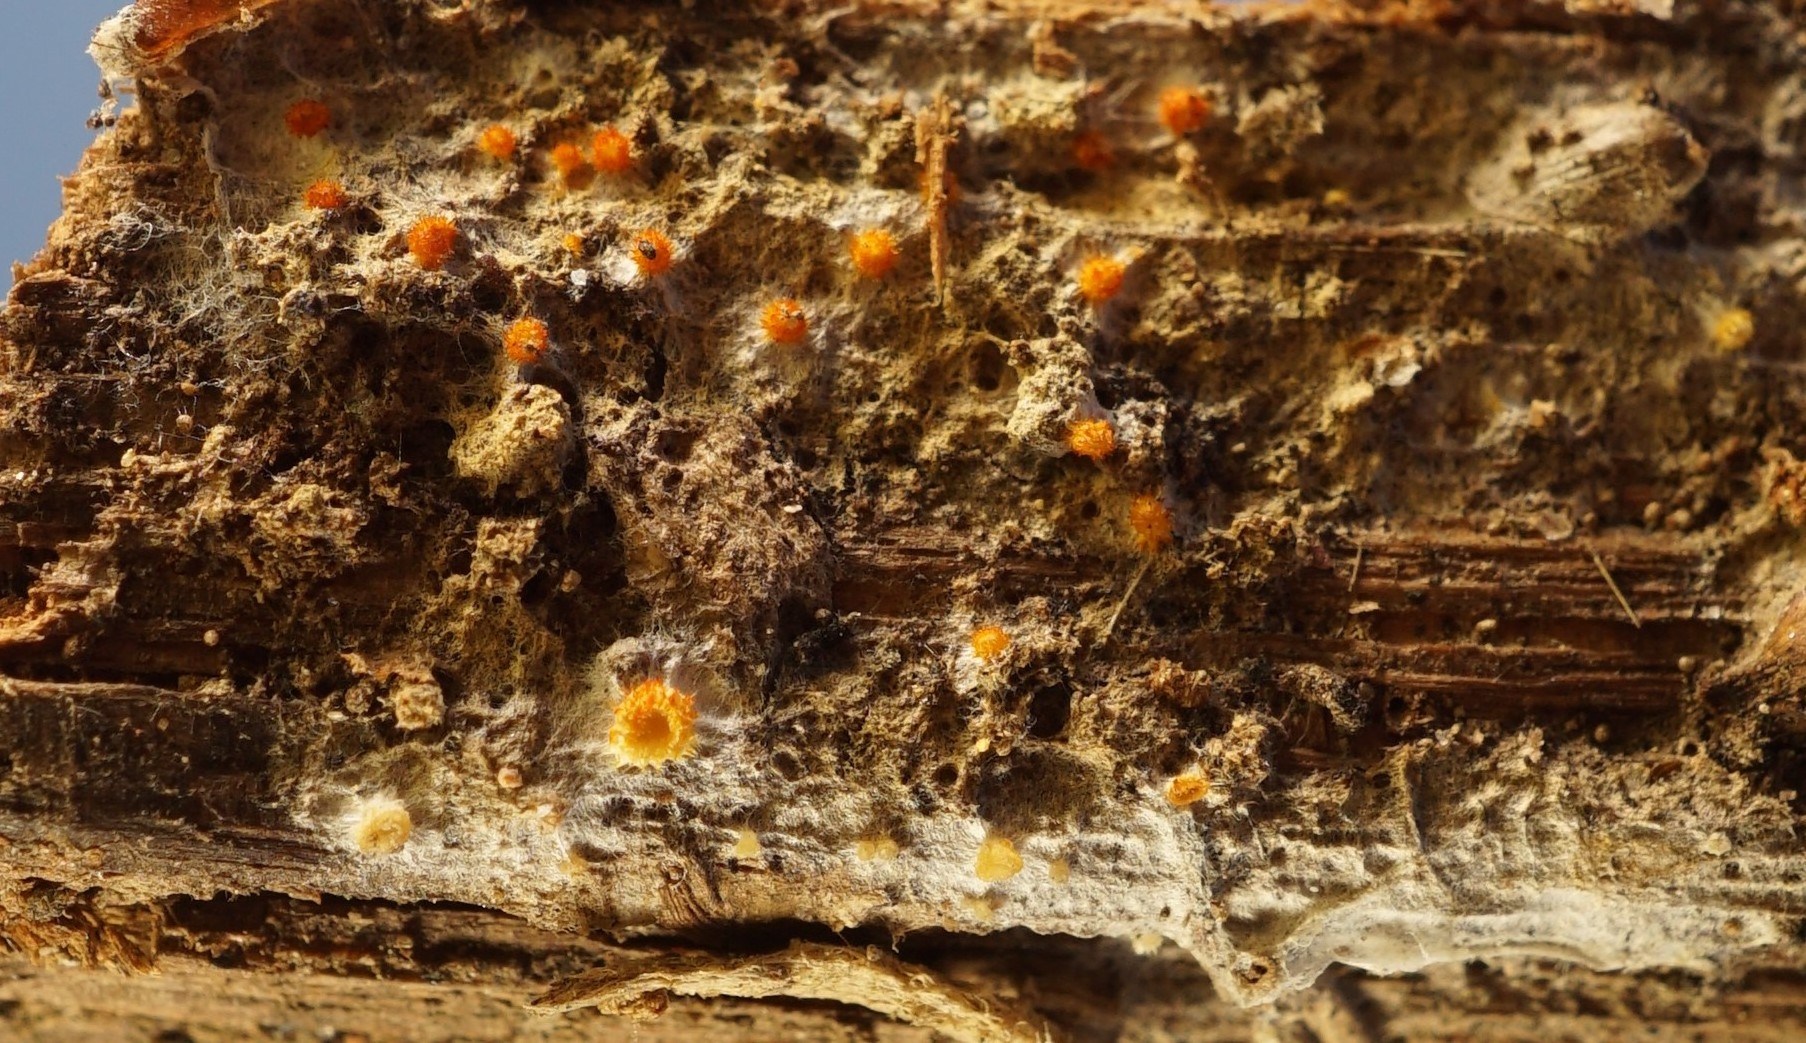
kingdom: Fungi
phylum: Ascomycota
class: Leotiomycetes
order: Helotiales
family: Arachnopezizaceae
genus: Arachnopeziza
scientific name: Arachnopeziza aurelia
